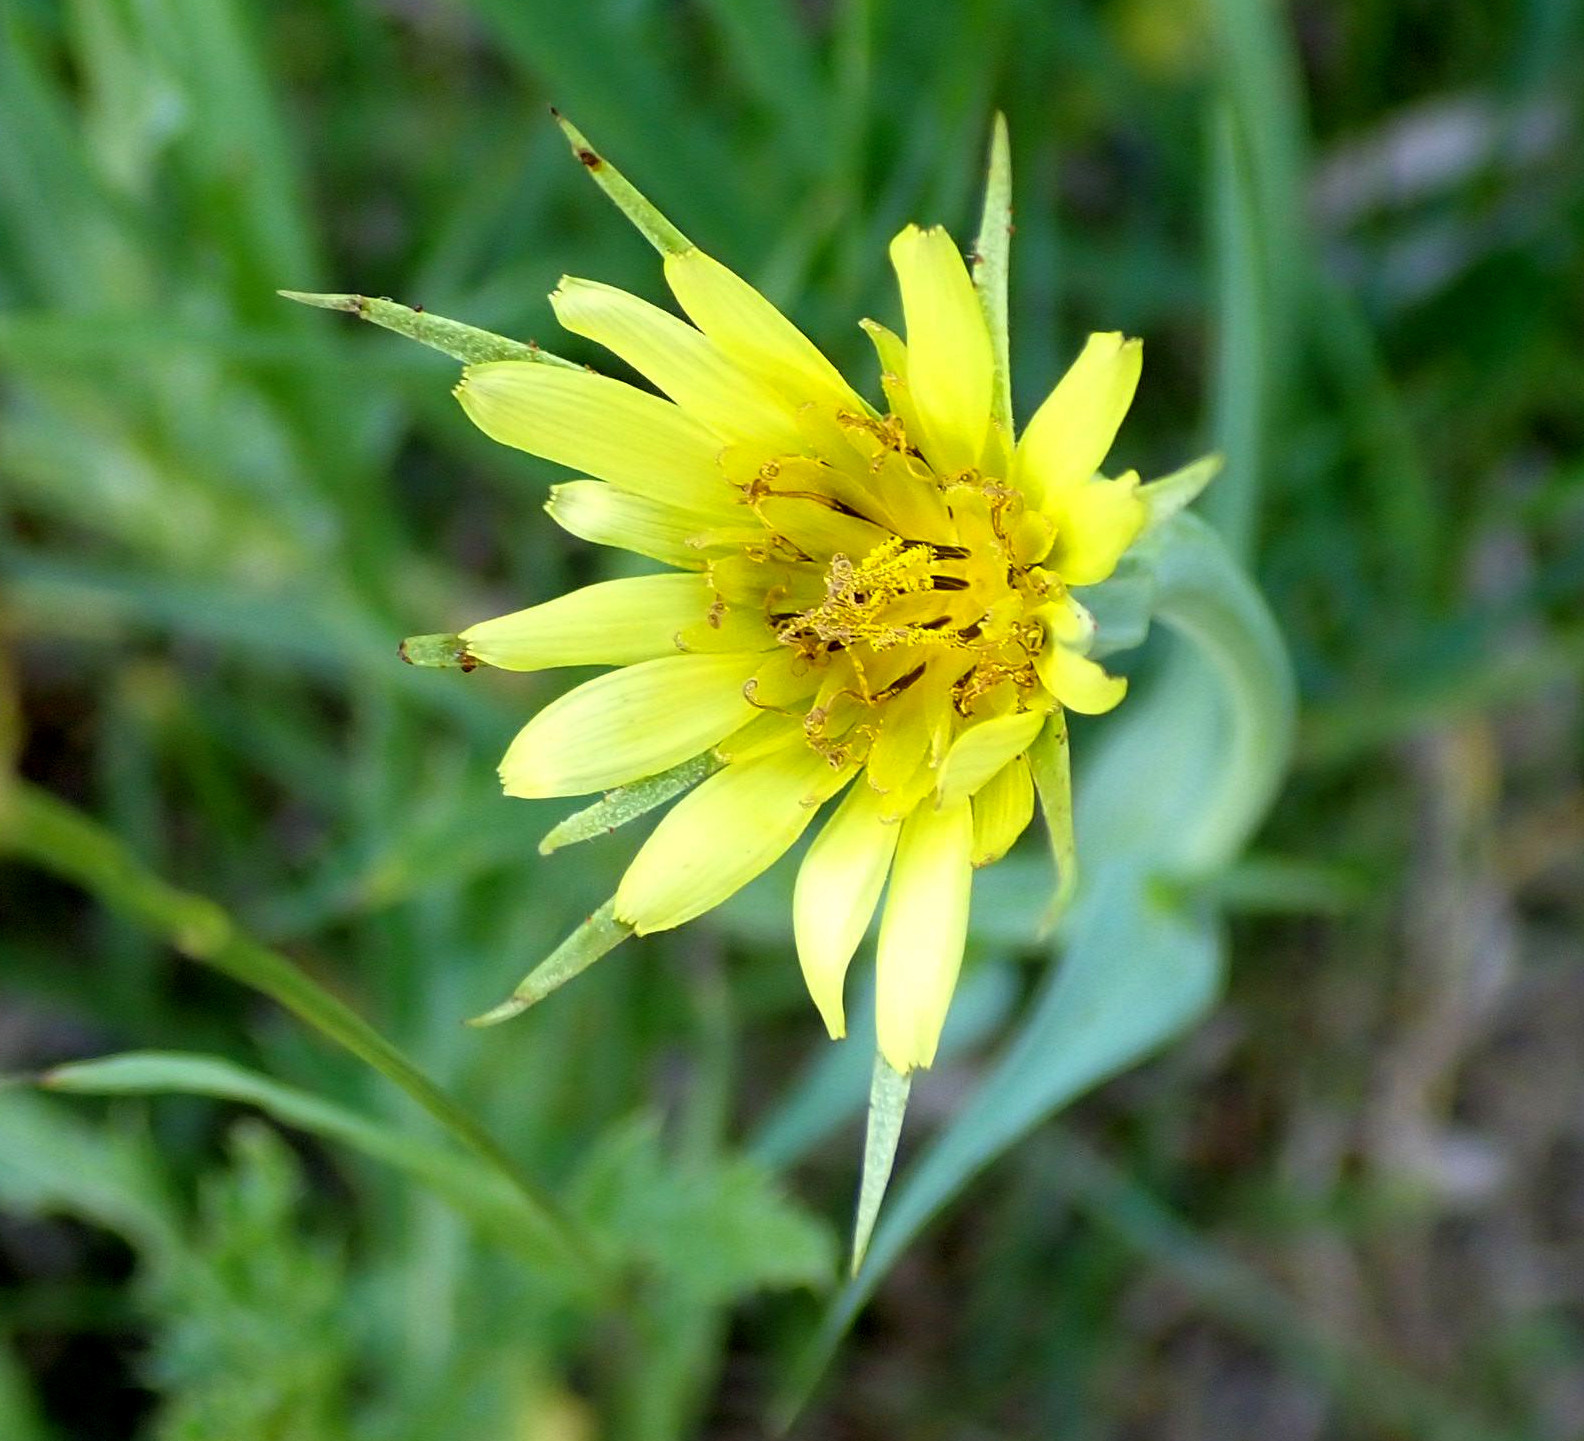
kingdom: Plantae
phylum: Tracheophyta
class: Magnoliopsida
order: Asterales
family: Asteraceae
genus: Tragopogon
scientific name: Tragopogon dubius
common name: Yellow salsify
